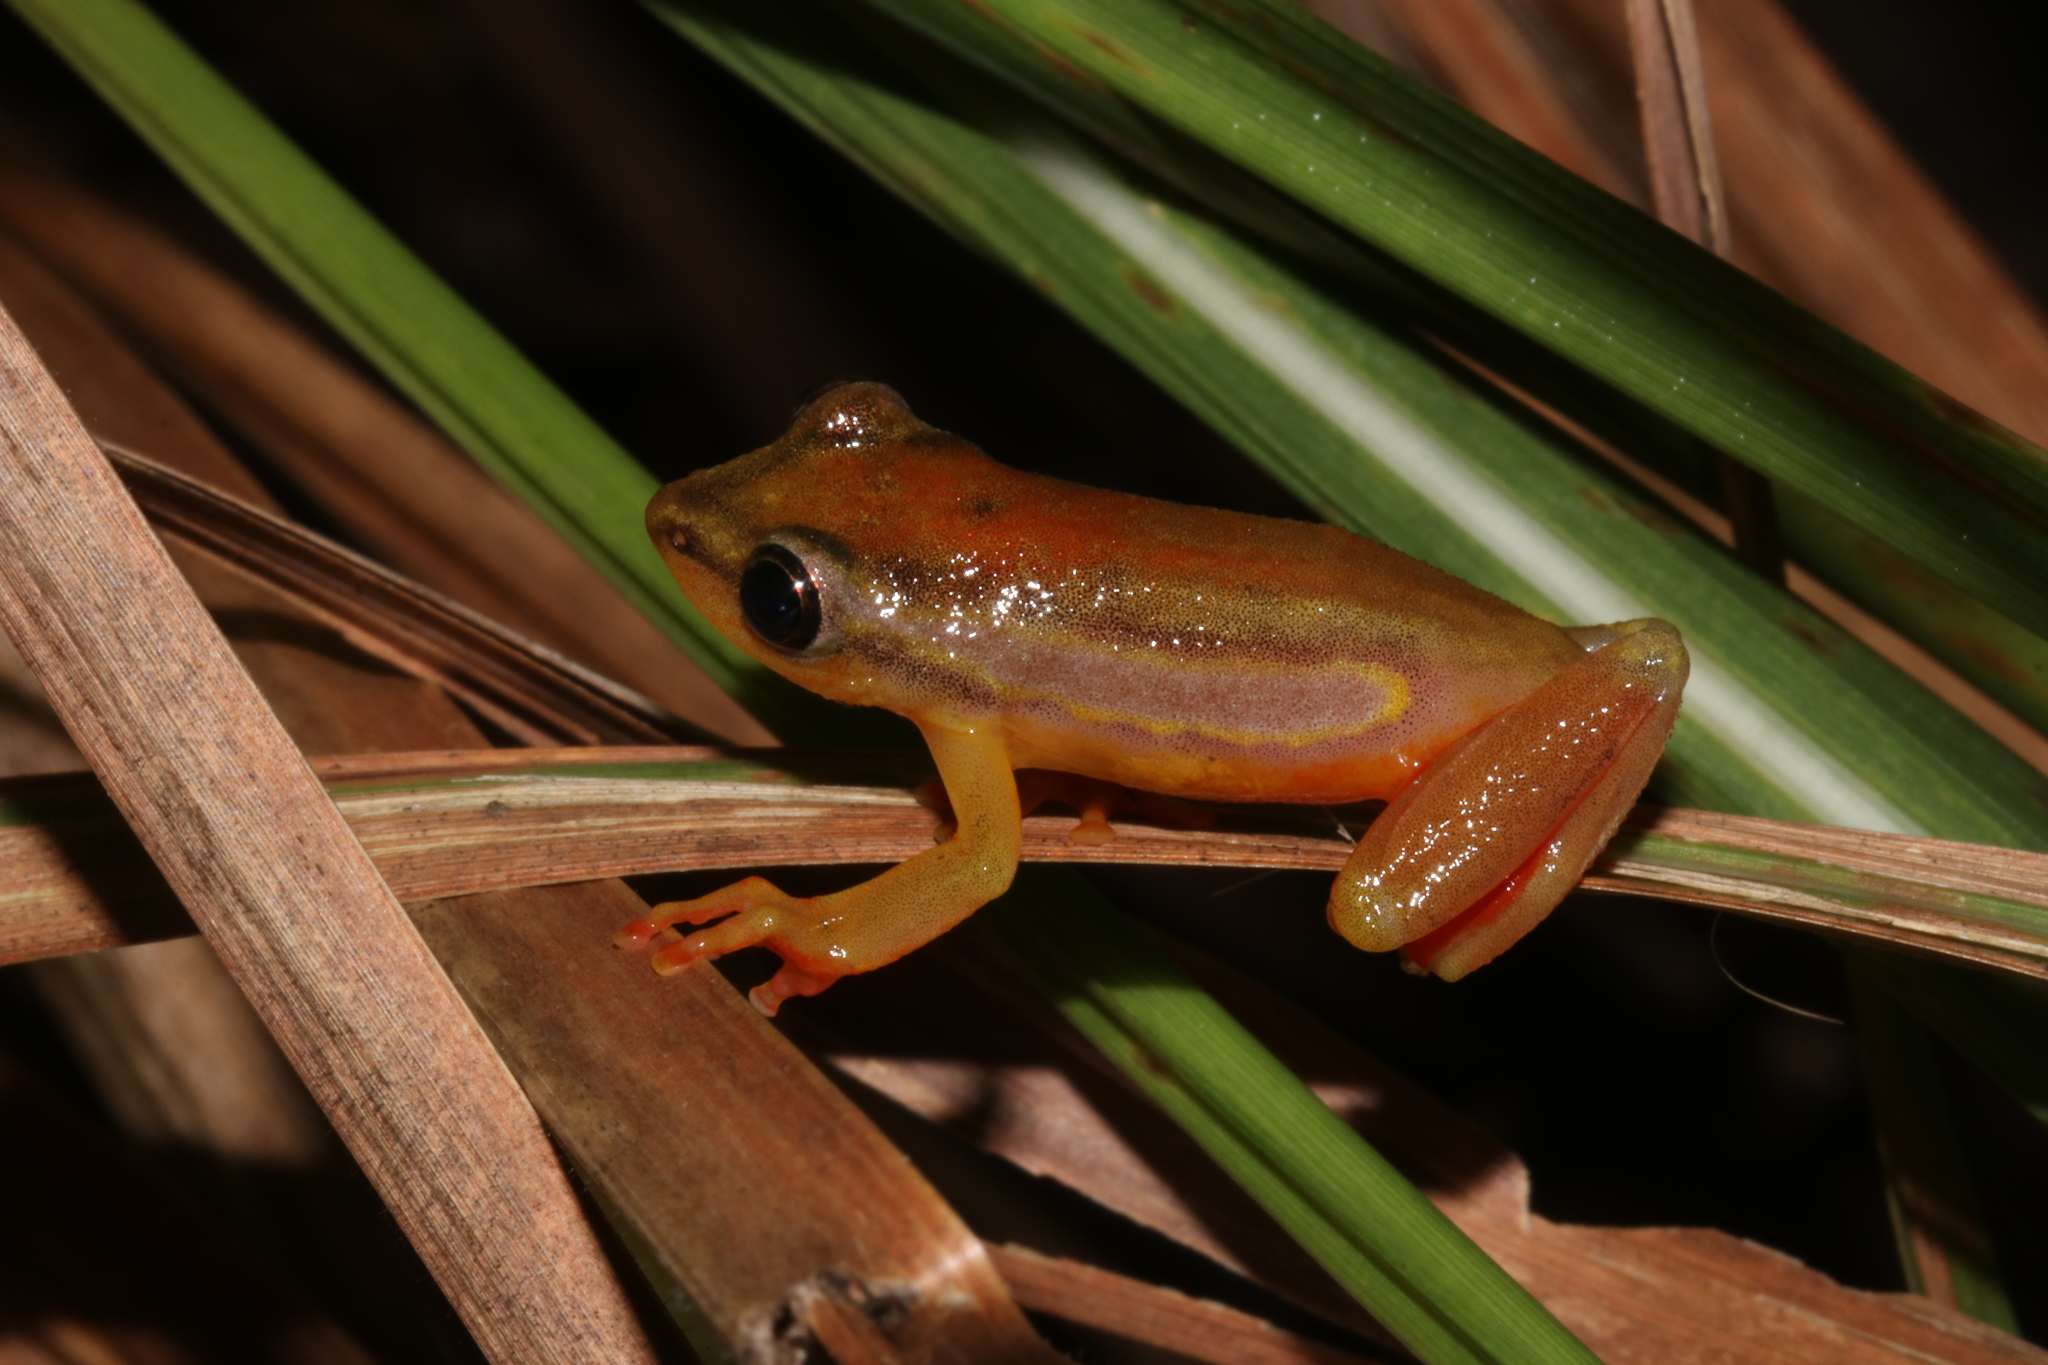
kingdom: Animalia
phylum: Chordata
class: Amphibia
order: Anura
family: Hyperoliidae
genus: Hyperolius
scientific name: Hyperolius mitchelli
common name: Mitchell's reed frog
